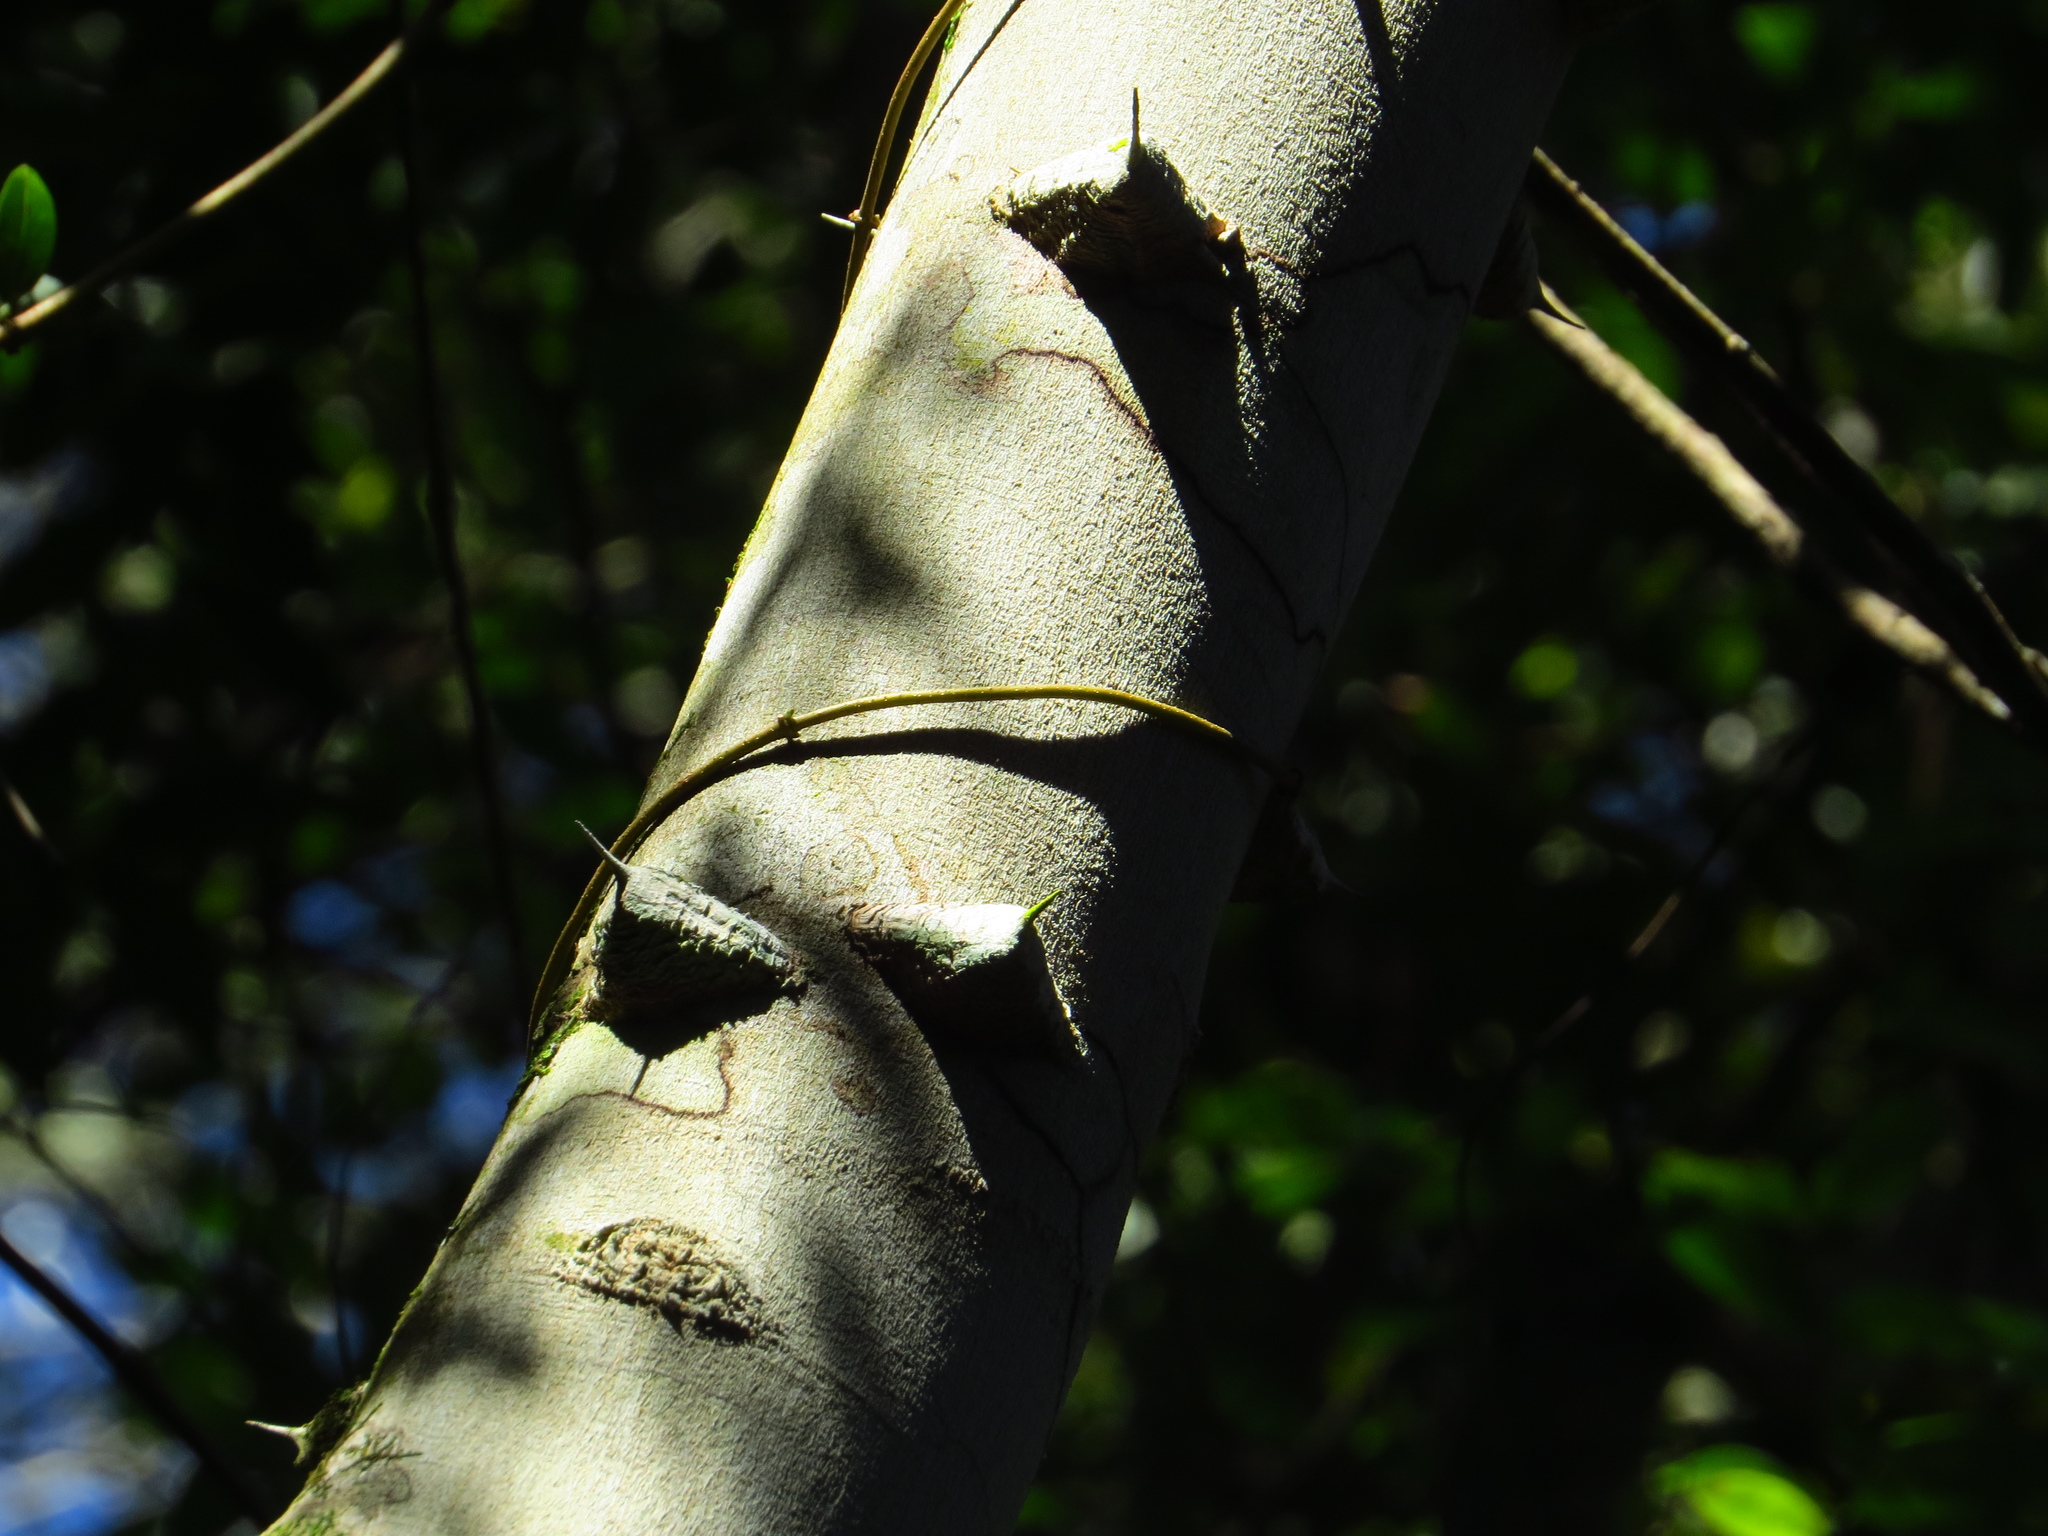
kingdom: Plantae
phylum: Tracheophyta
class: Magnoliopsida
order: Sapindales
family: Rutaceae
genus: Zanthoxylum
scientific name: Zanthoxylum rhoifolium
